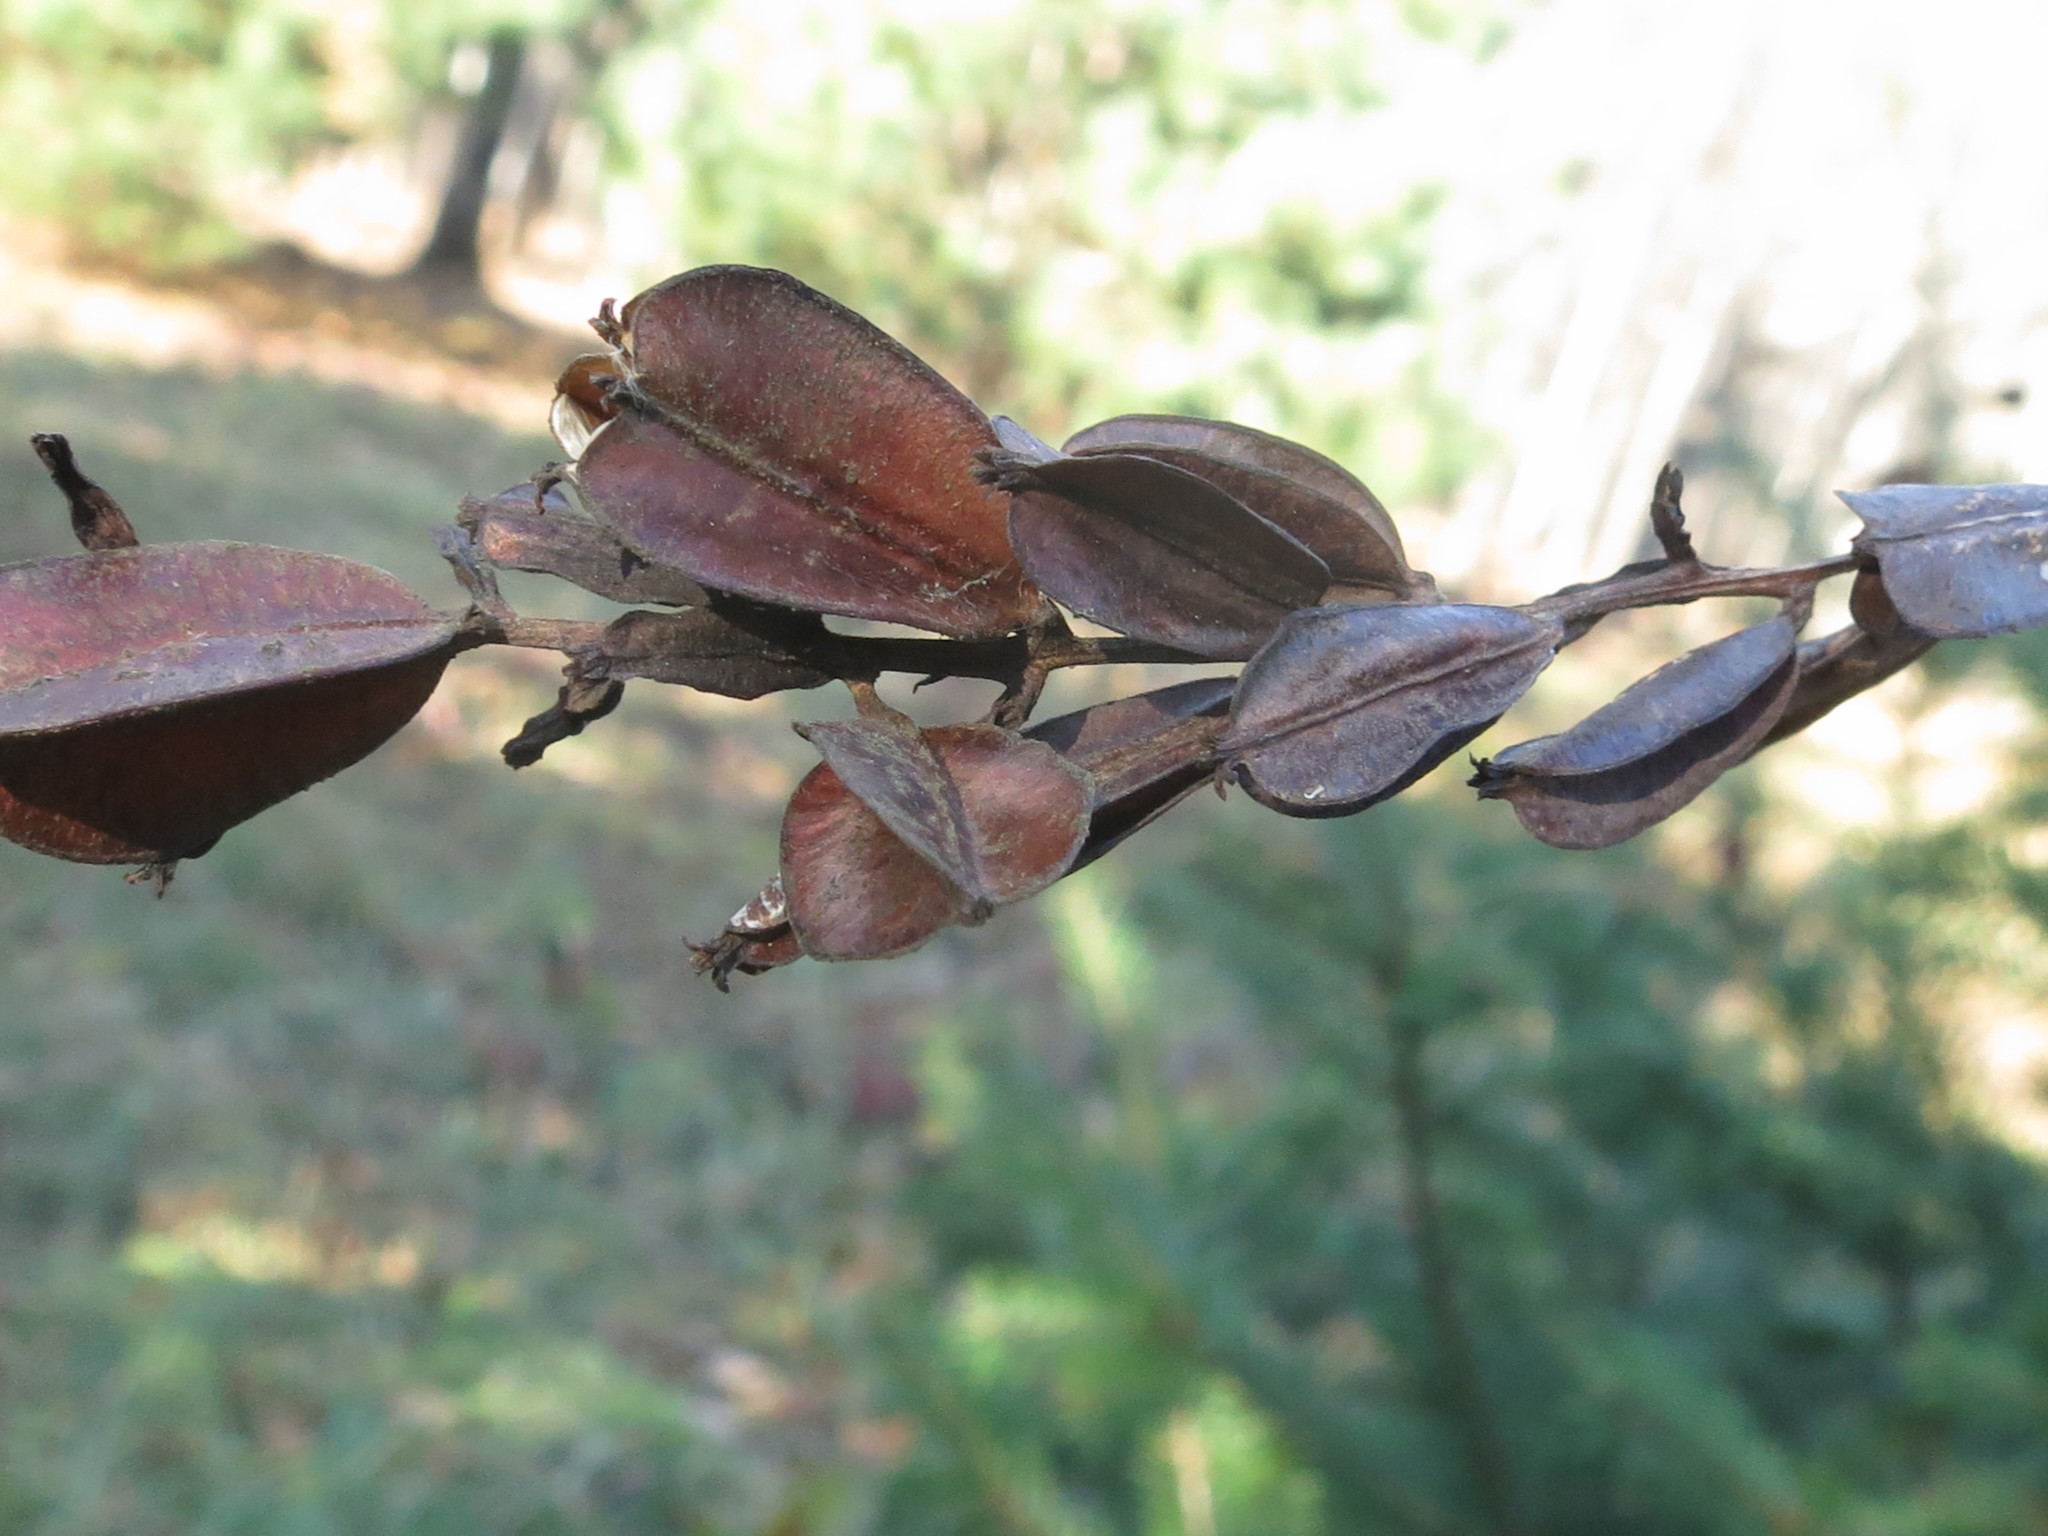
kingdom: Plantae
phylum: Tracheophyta
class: Liliopsida
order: Dioscoreales
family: Dioscoreaceae
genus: Dioscorea
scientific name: Dioscorea nipponica
